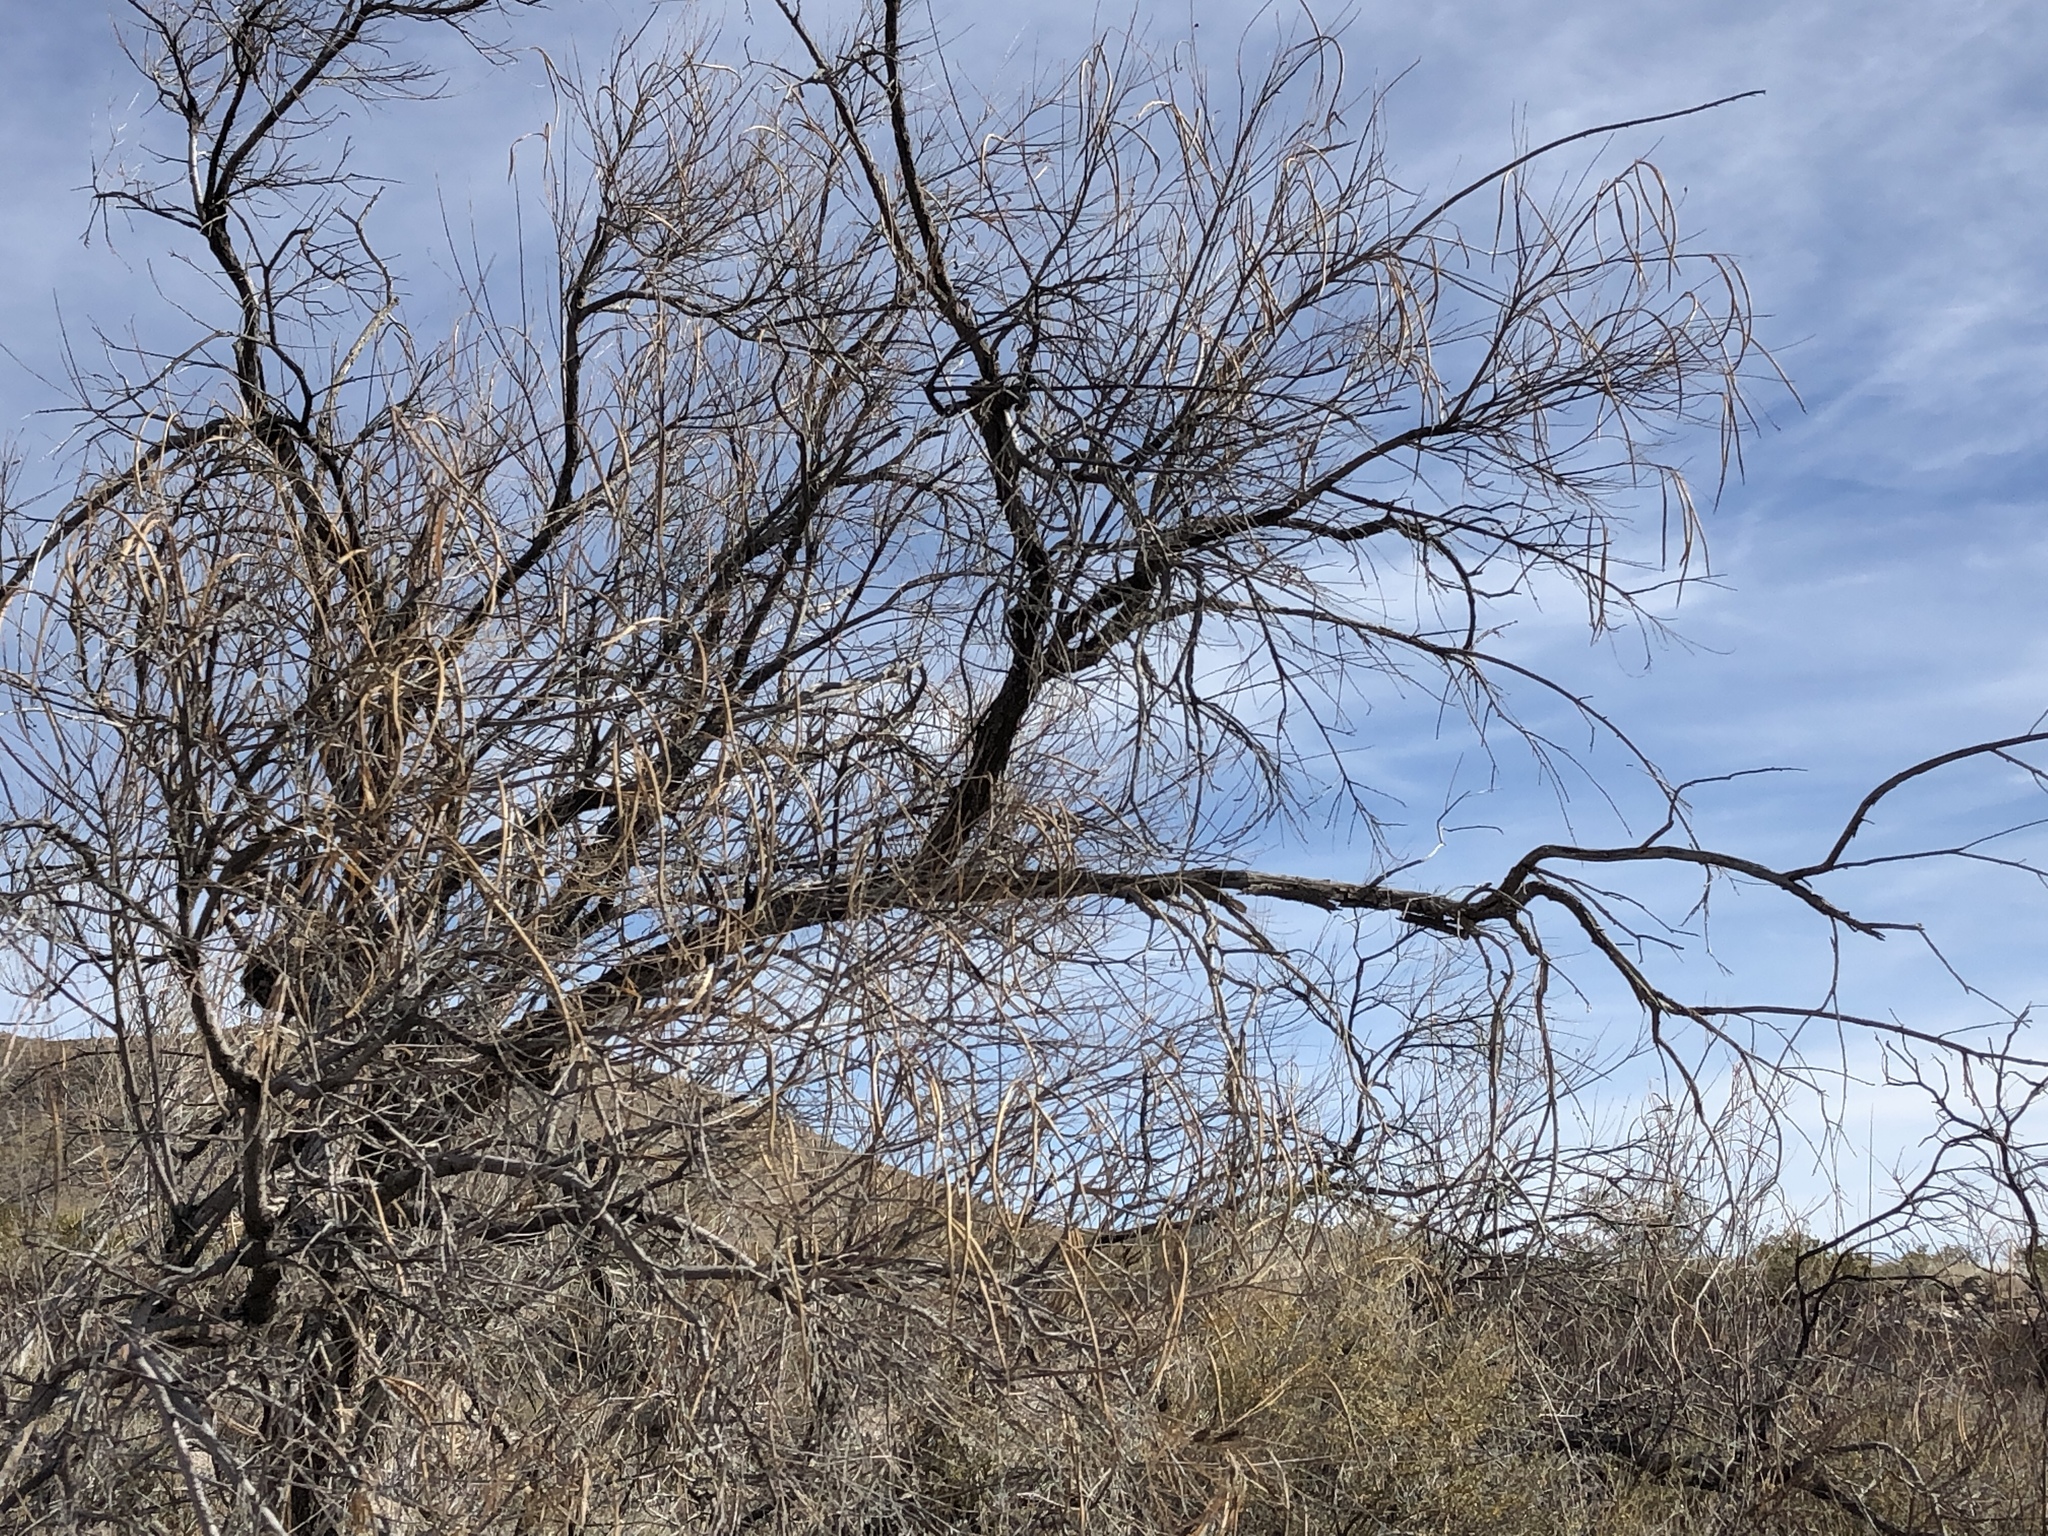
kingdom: Plantae
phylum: Tracheophyta
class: Magnoliopsida
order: Lamiales
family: Bignoniaceae
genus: Chilopsis
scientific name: Chilopsis linearis
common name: Desert-willow
